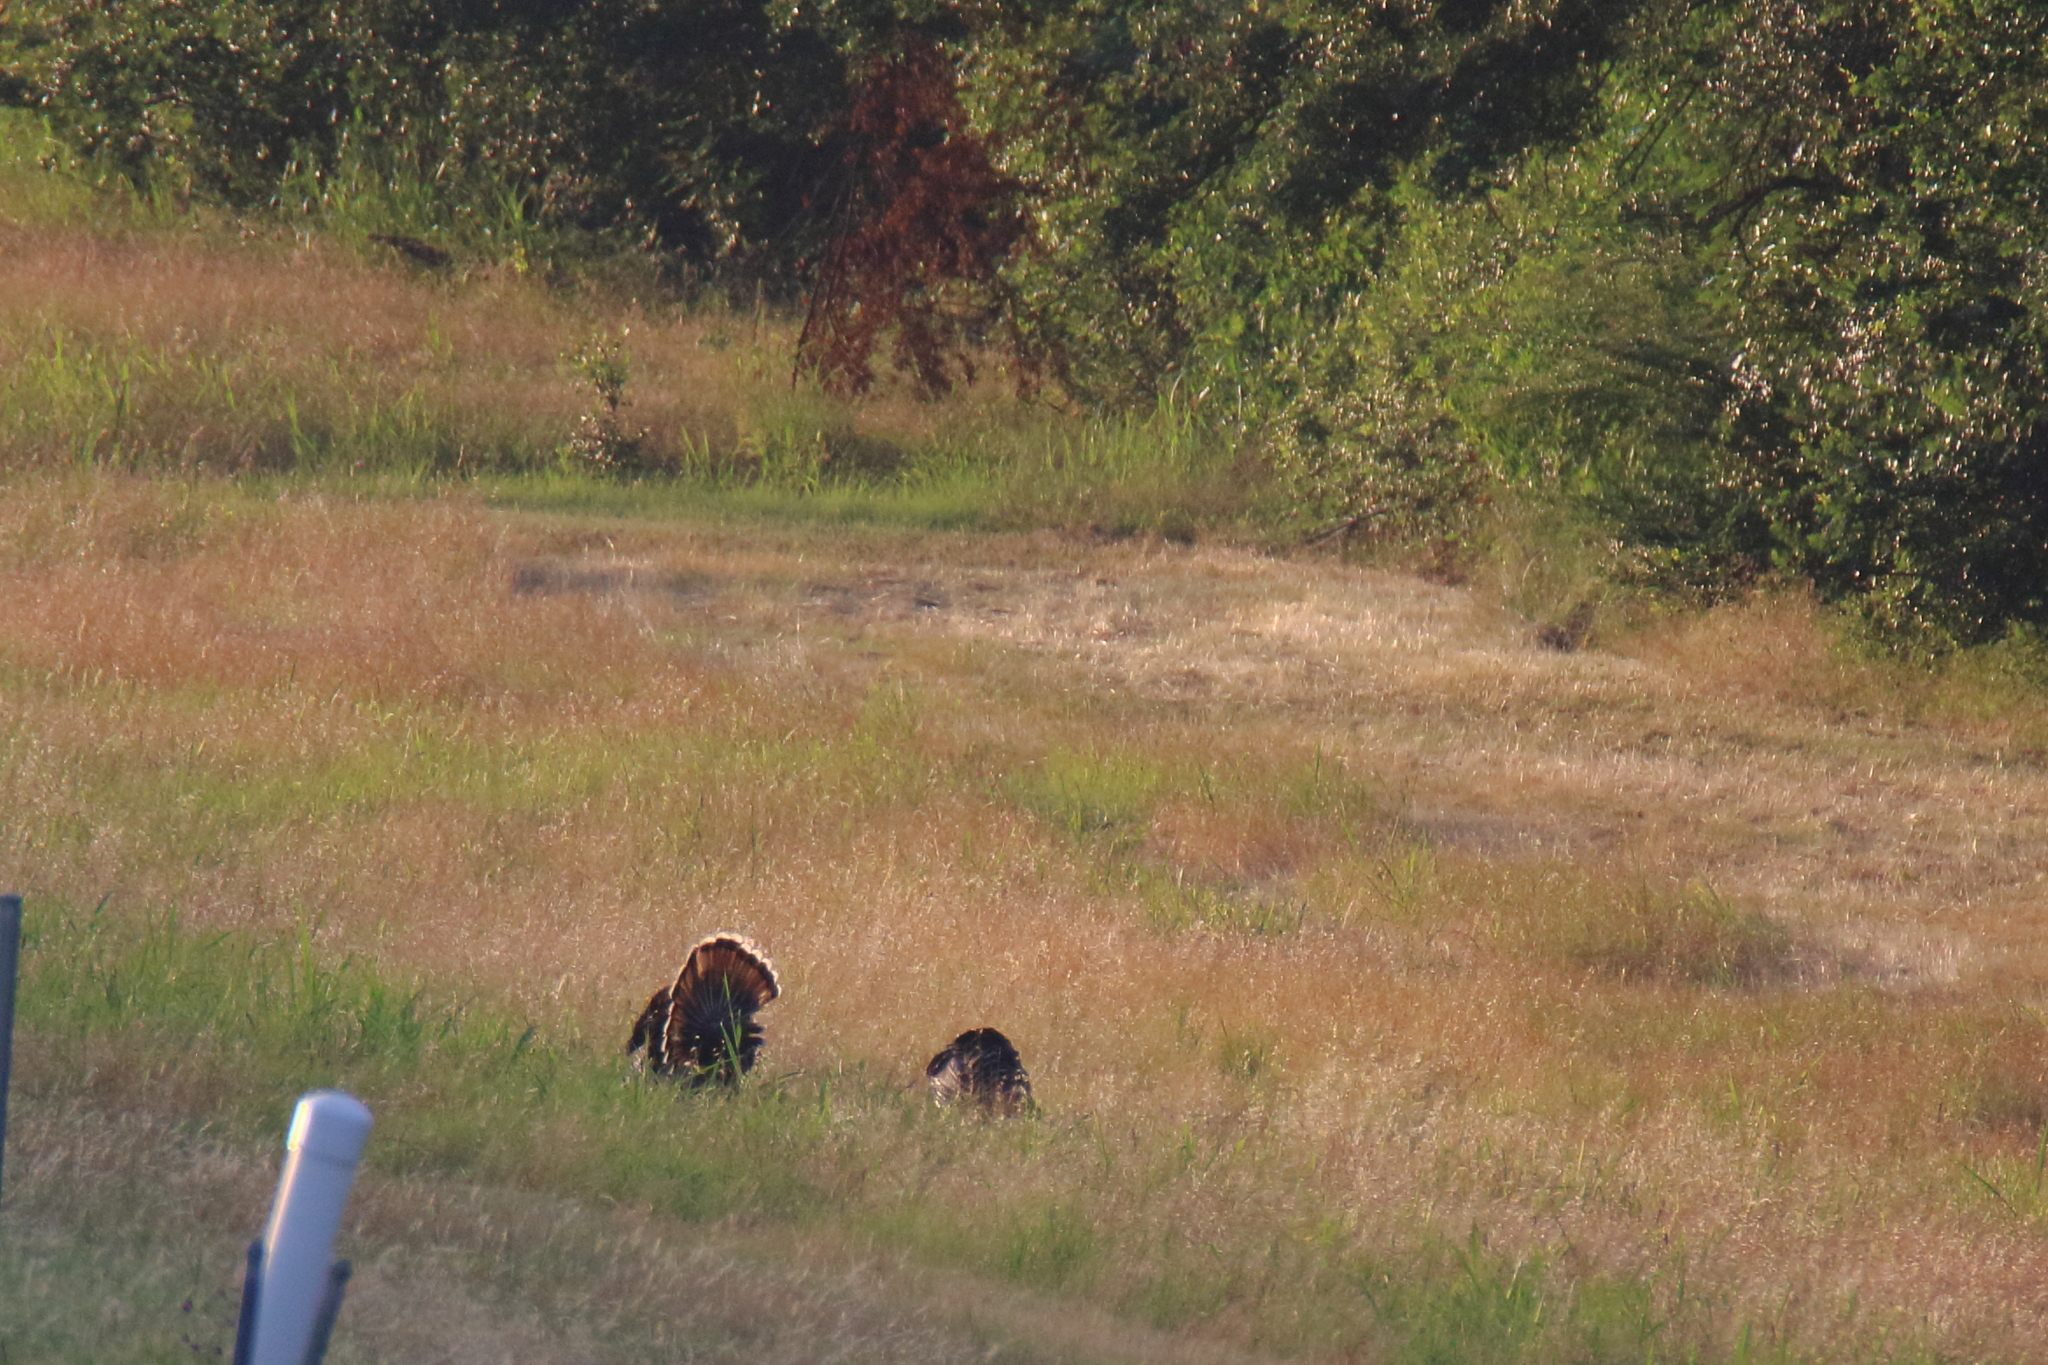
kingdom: Animalia
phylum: Chordata
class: Aves
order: Galliformes
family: Phasianidae
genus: Meleagris
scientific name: Meleagris gallopavo
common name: Wild turkey
